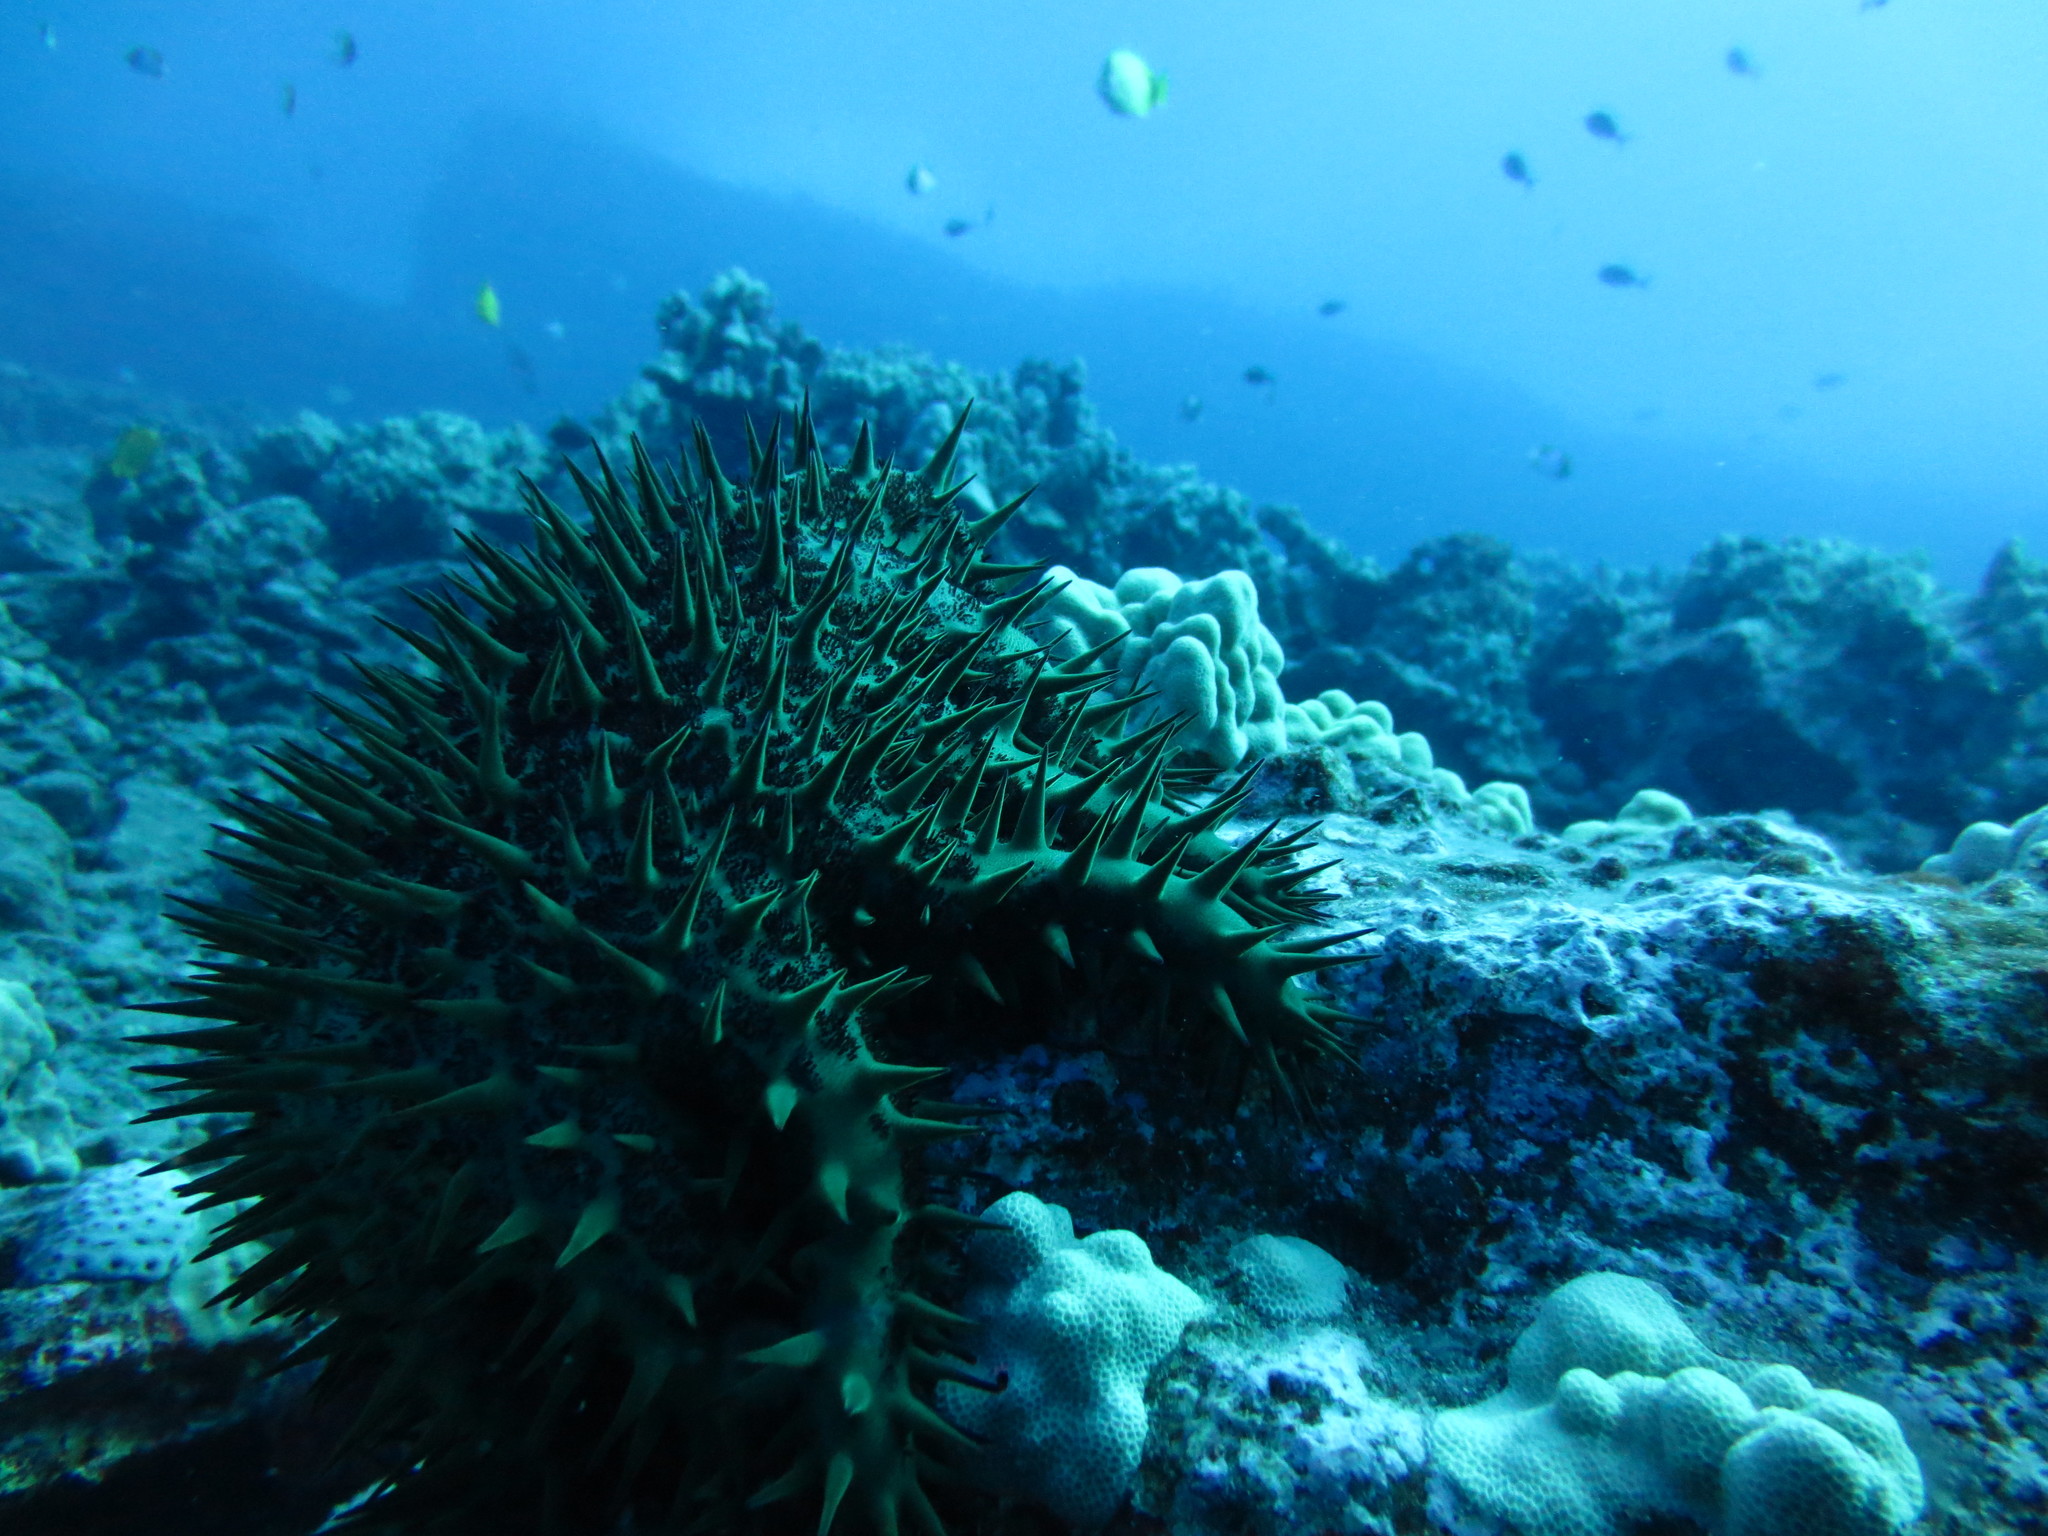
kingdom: Animalia
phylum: Echinodermata
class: Asteroidea
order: Valvatida
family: Acanthasteridae
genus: Acanthaster
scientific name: Acanthaster planci
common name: Crown-of-thorns
